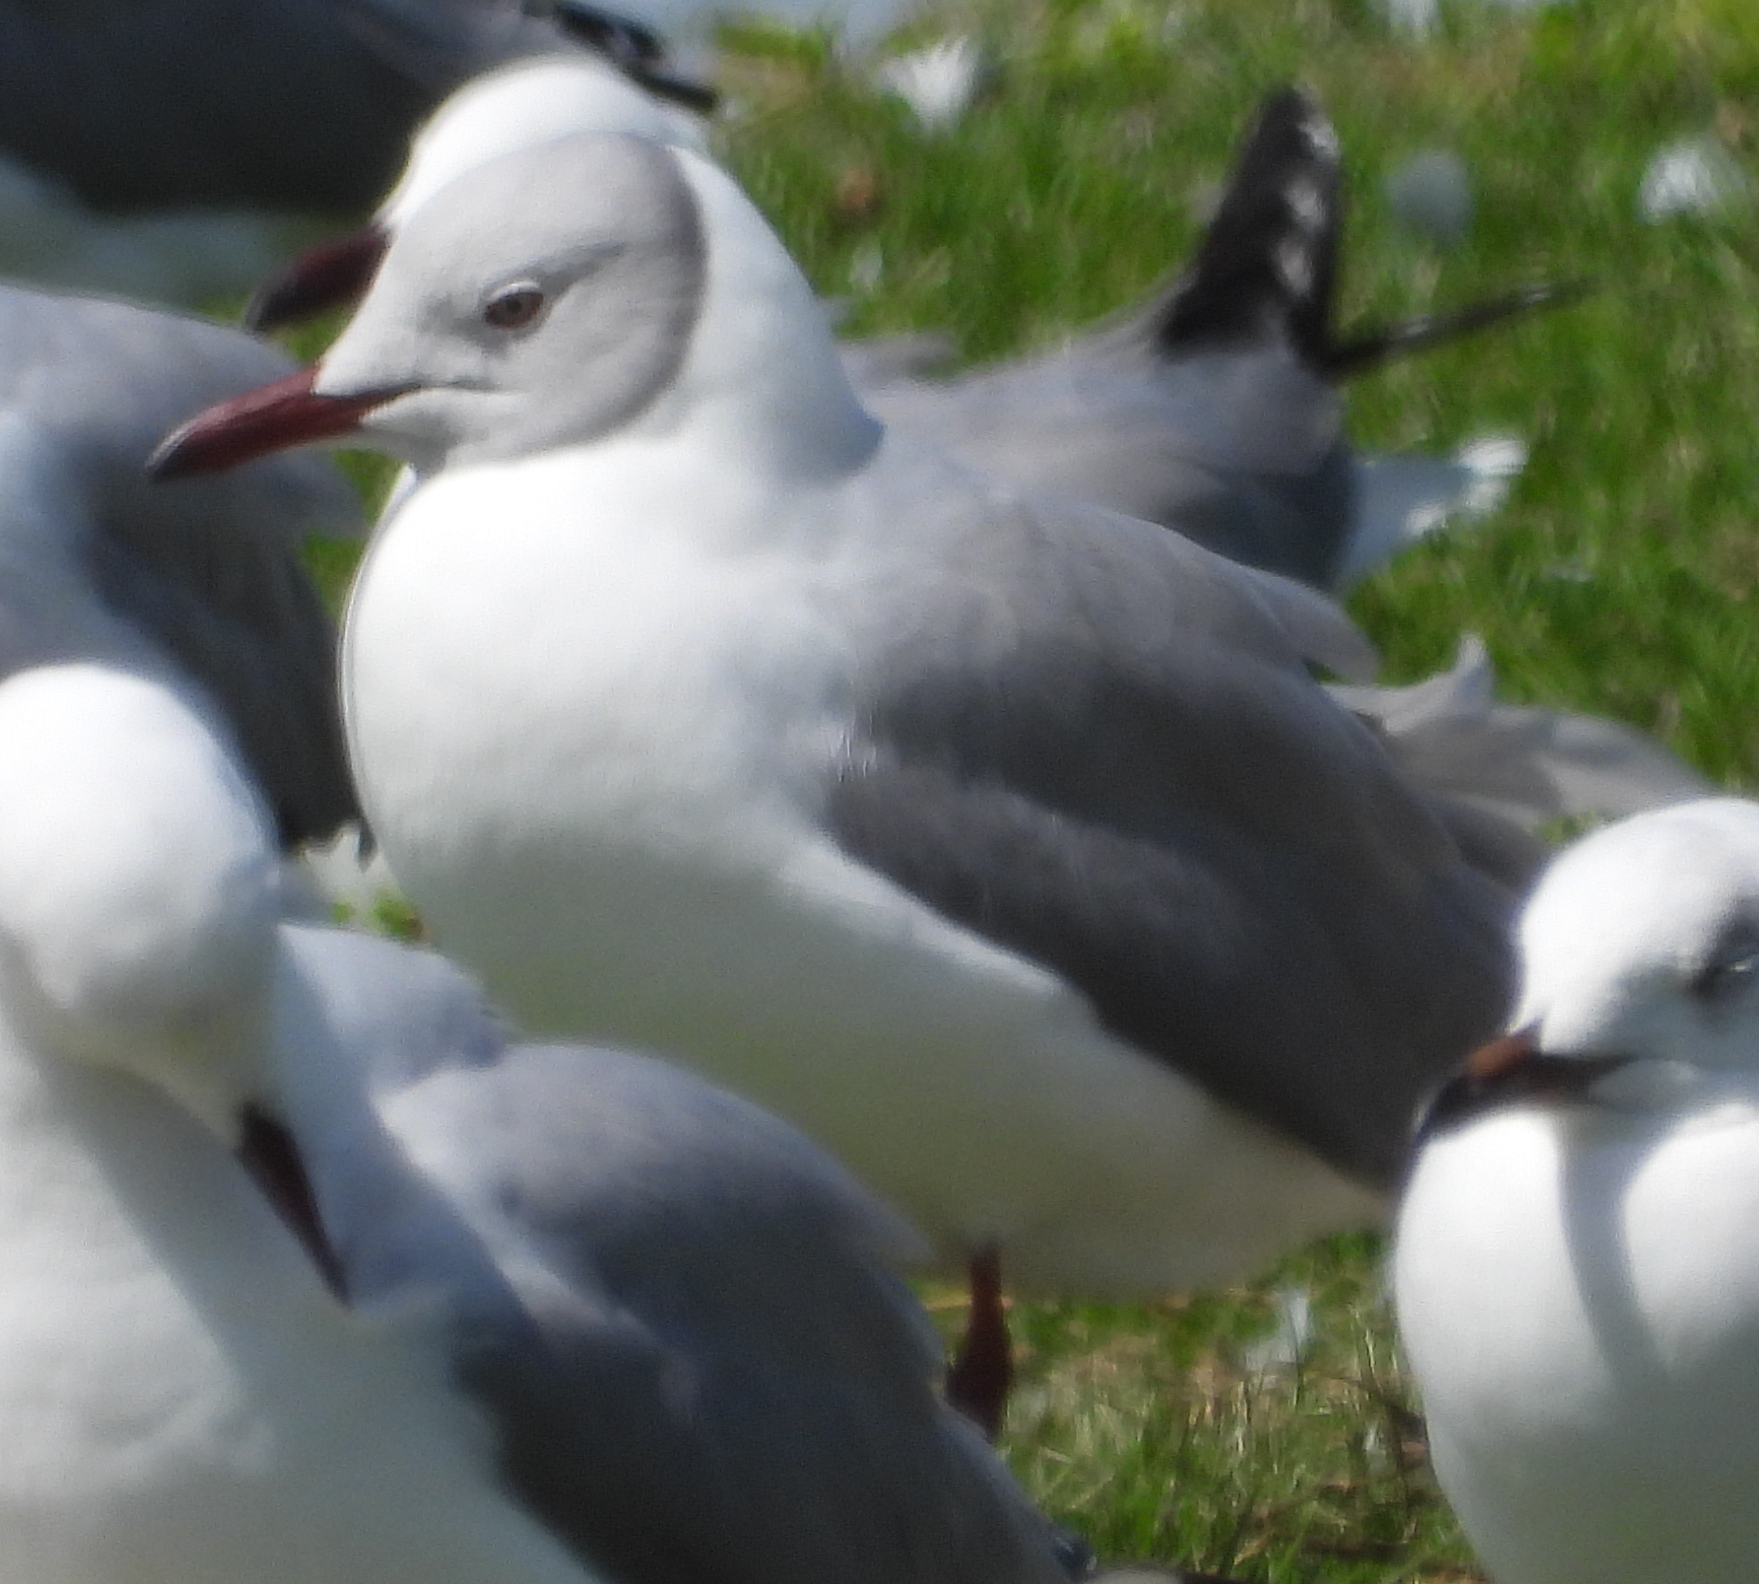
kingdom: Animalia
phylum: Chordata
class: Aves
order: Charadriiformes
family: Laridae
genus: Chroicocephalus
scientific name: Chroicocephalus cirrocephalus
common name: Grey-headed gull
